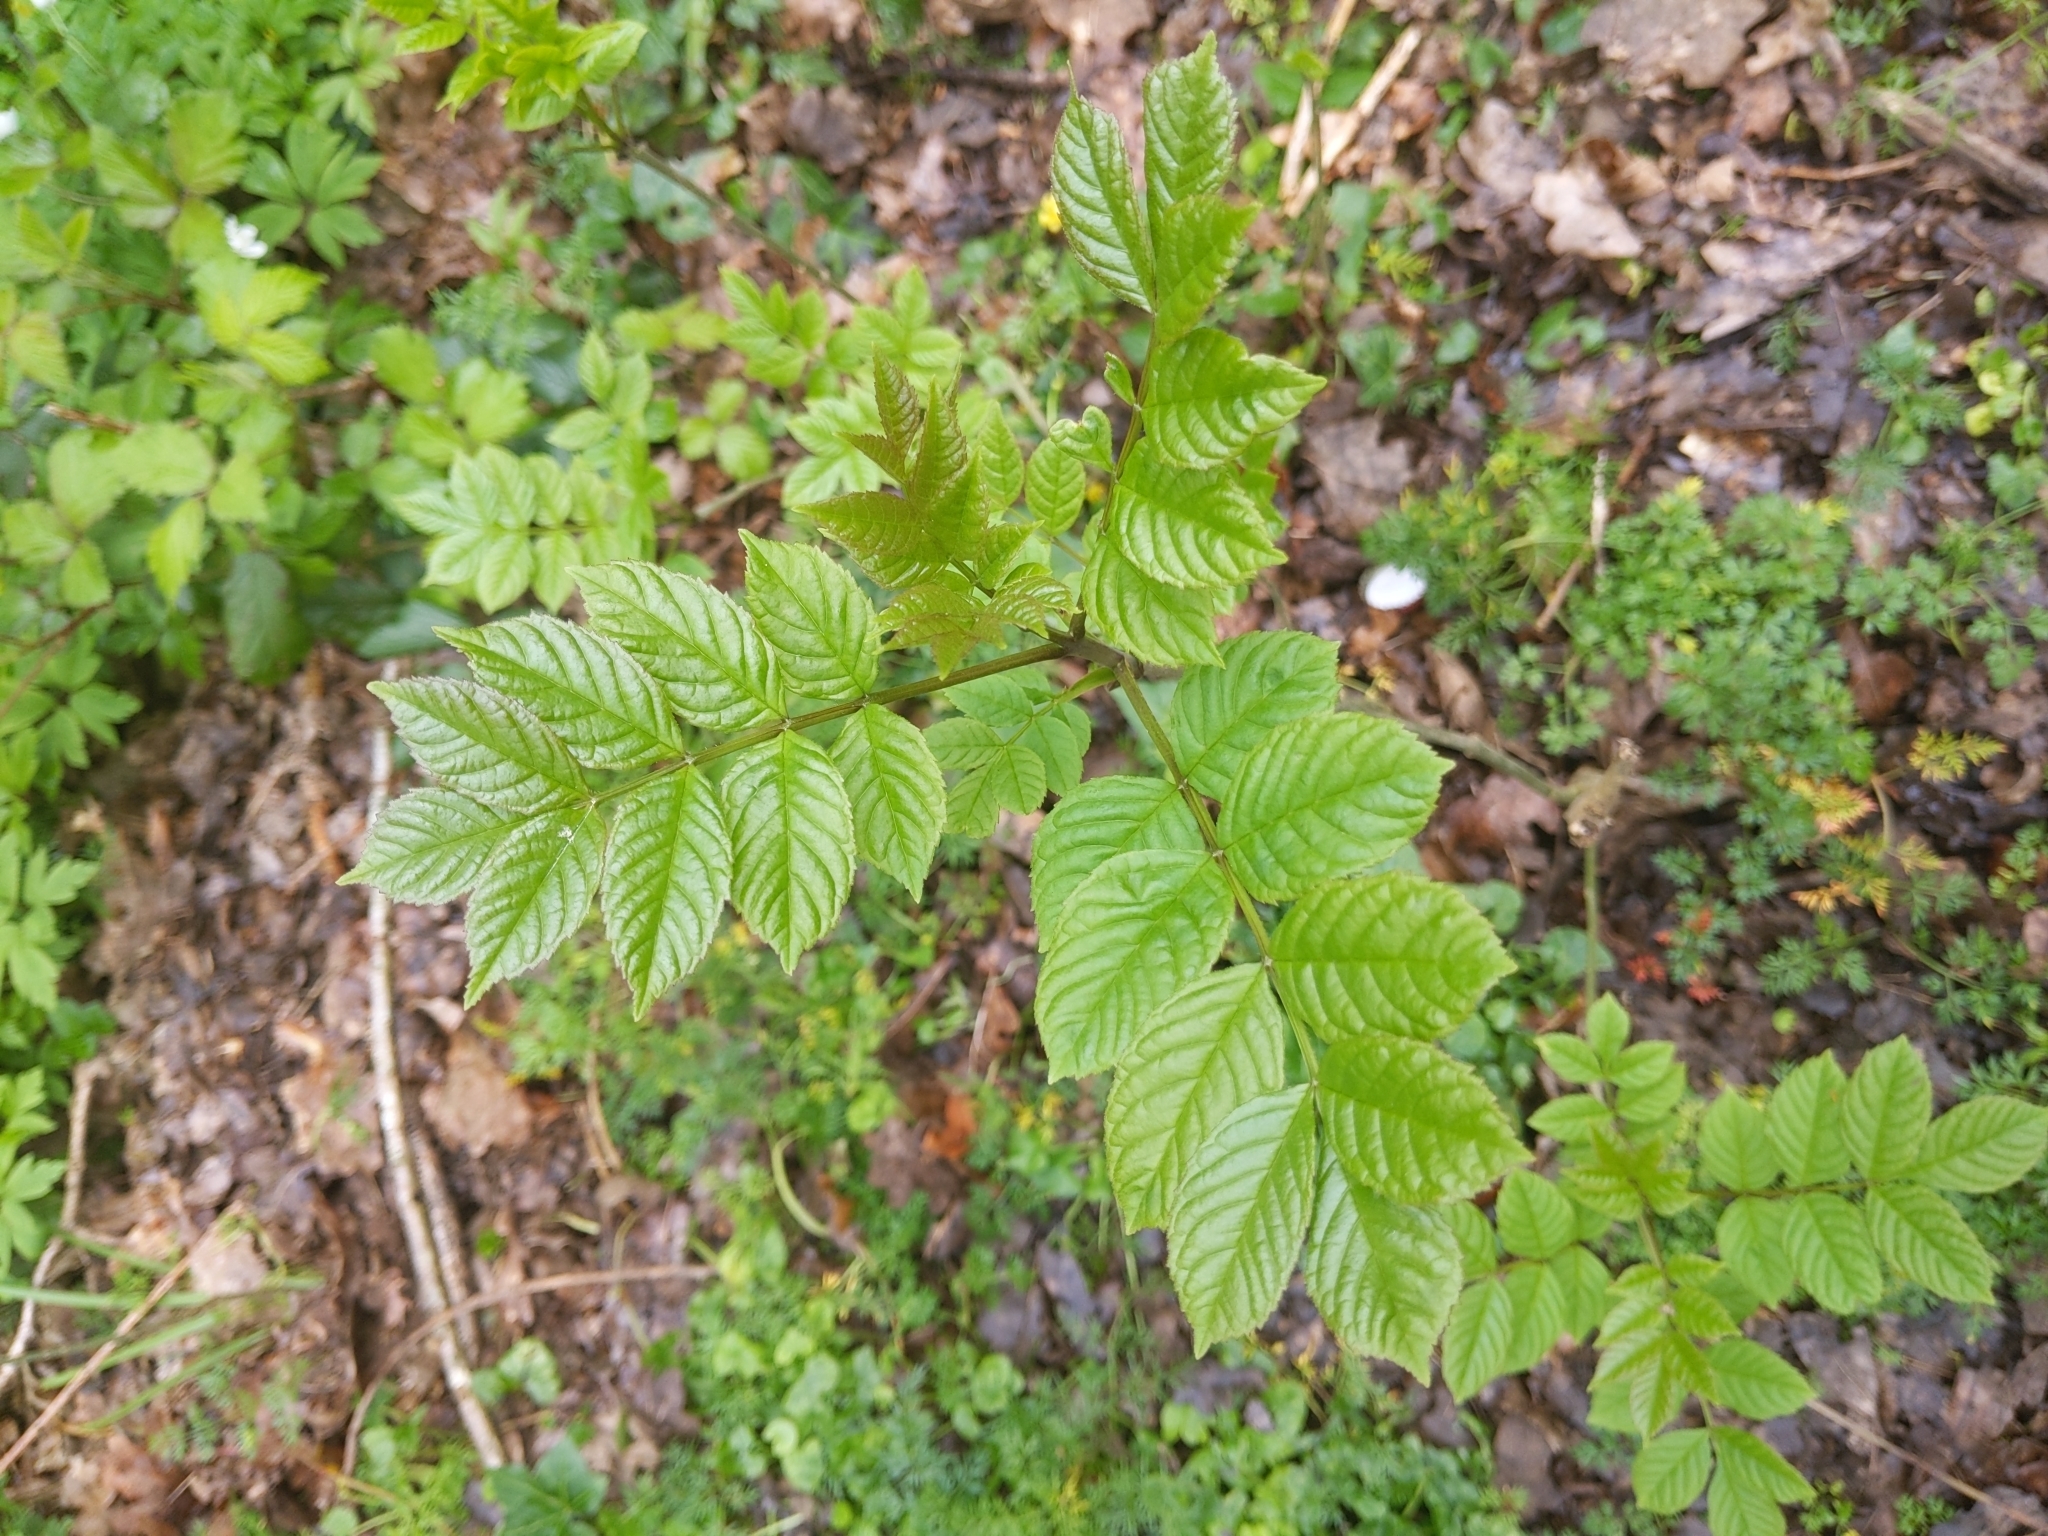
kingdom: Plantae
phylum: Tracheophyta
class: Magnoliopsida
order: Lamiales
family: Oleaceae
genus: Fraxinus
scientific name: Fraxinus excelsior
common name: European ash
